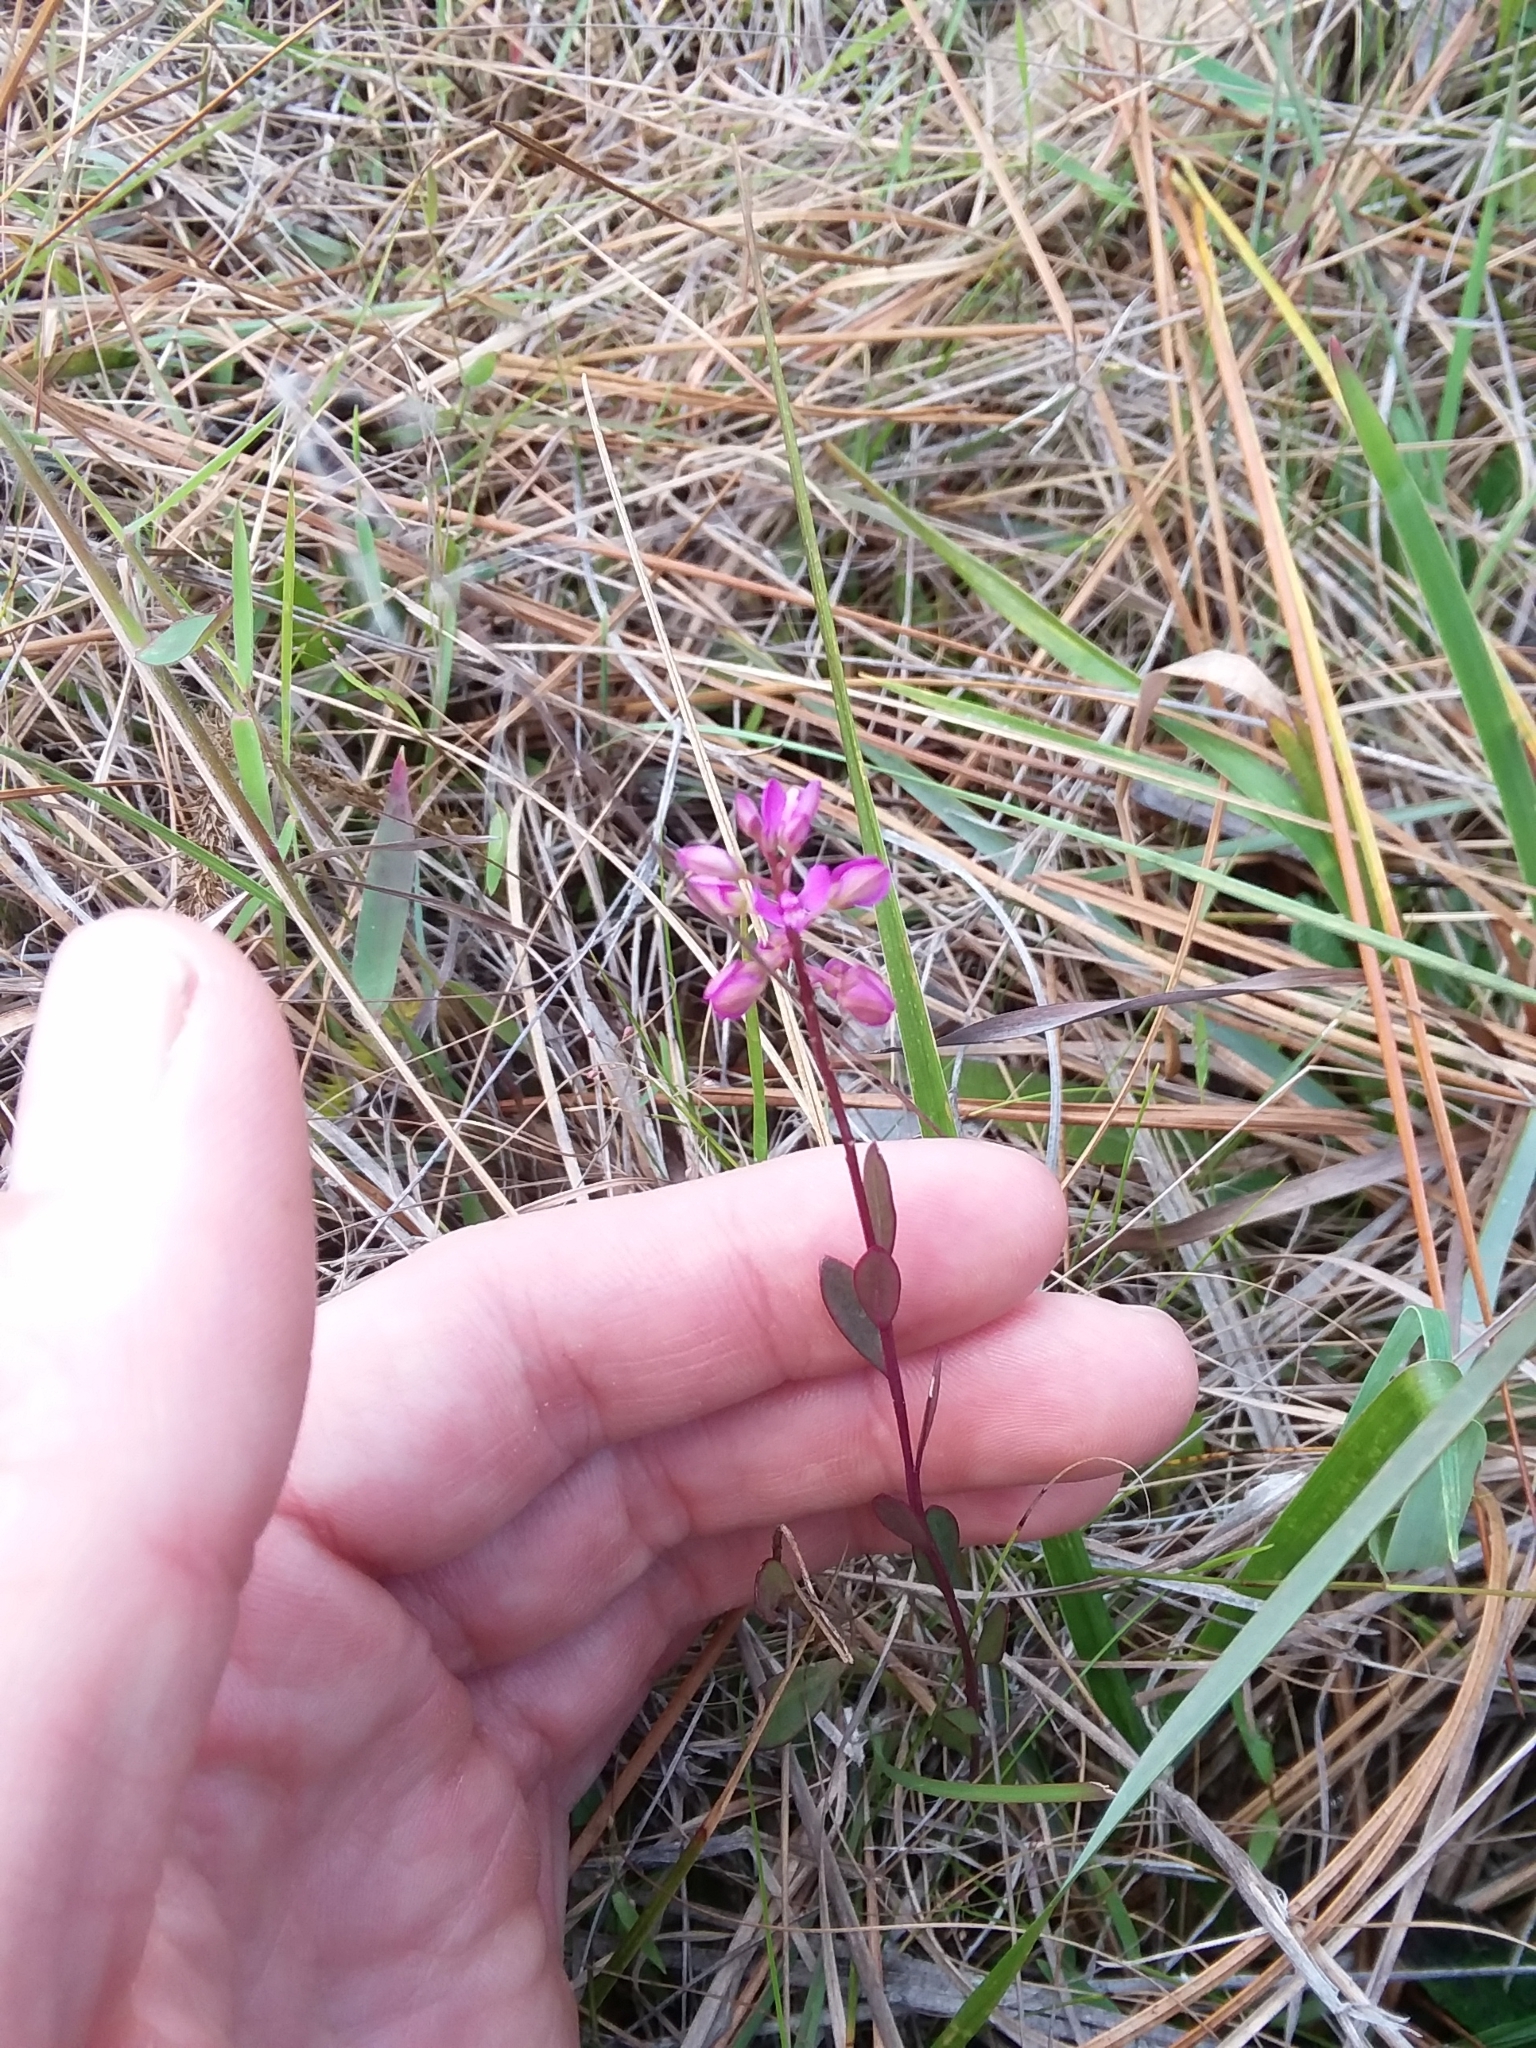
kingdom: Plantae
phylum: Tracheophyta
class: Magnoliopsida
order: Fabales
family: Polygalaceae
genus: Polygala
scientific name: Polygala crenata
